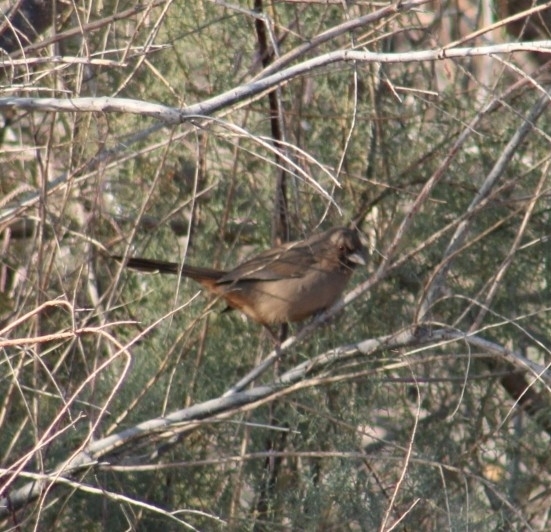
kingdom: Animalia
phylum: Chordata
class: Aves
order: Passeriformes
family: Passerellidae
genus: Melozone
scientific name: Melozone aberti
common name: Abert's towhee
